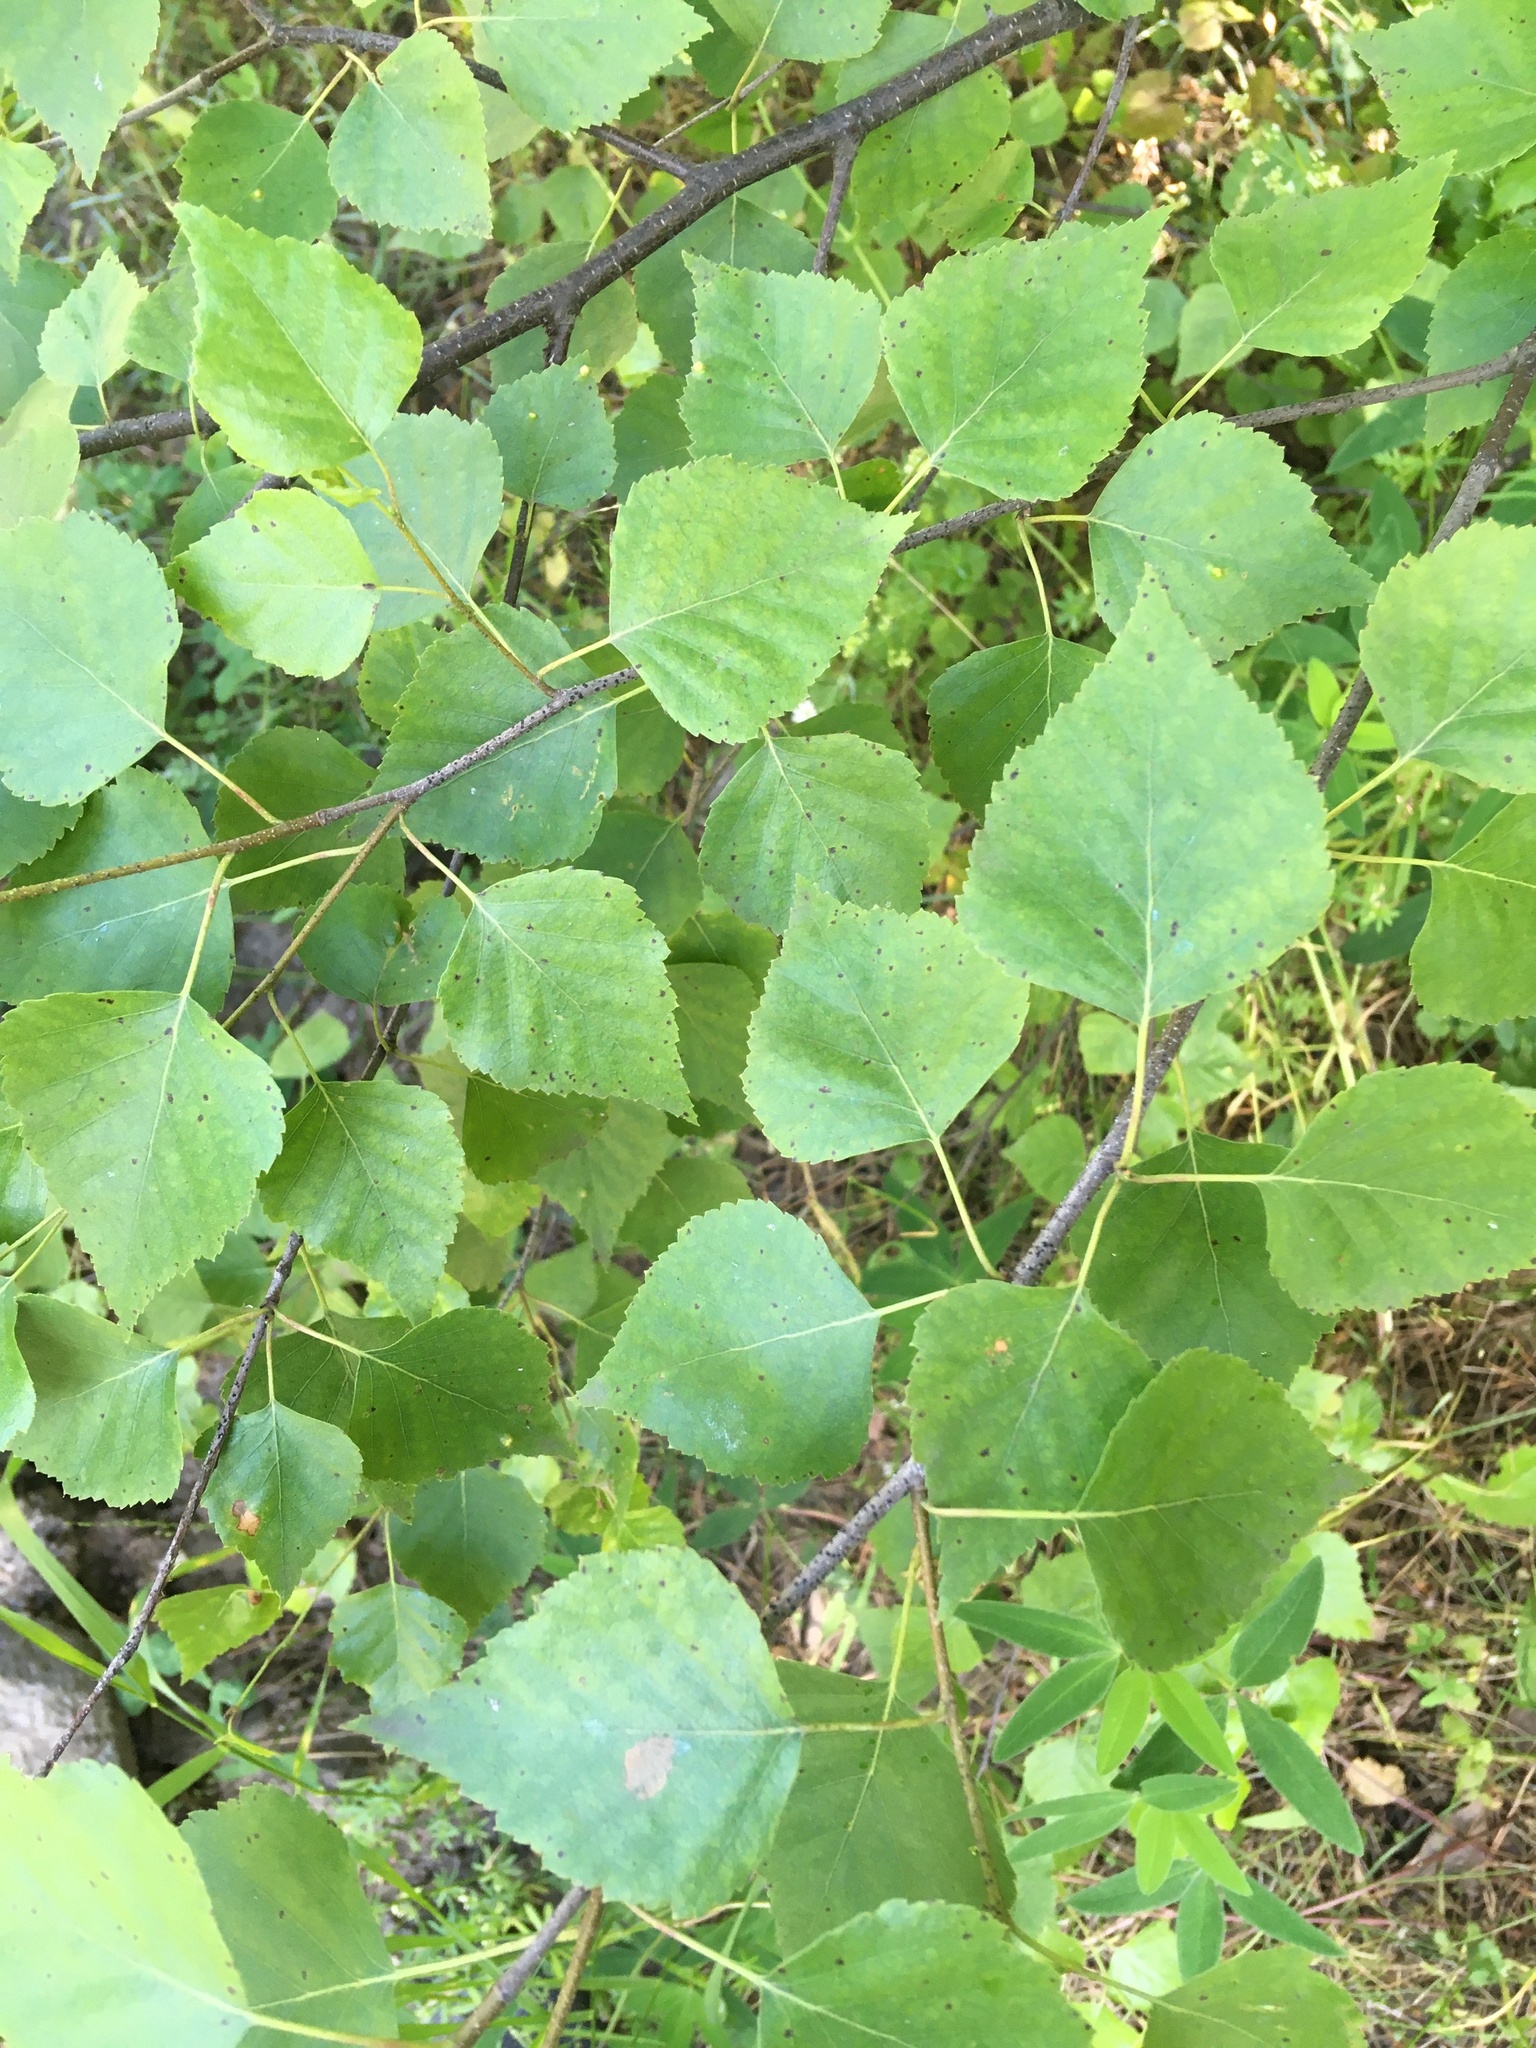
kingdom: Plantae
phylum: Tracheophyta
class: Magnoliopsida
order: Fagales
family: Betulaceae
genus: Betula
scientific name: Betula pendula
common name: Silver birch
